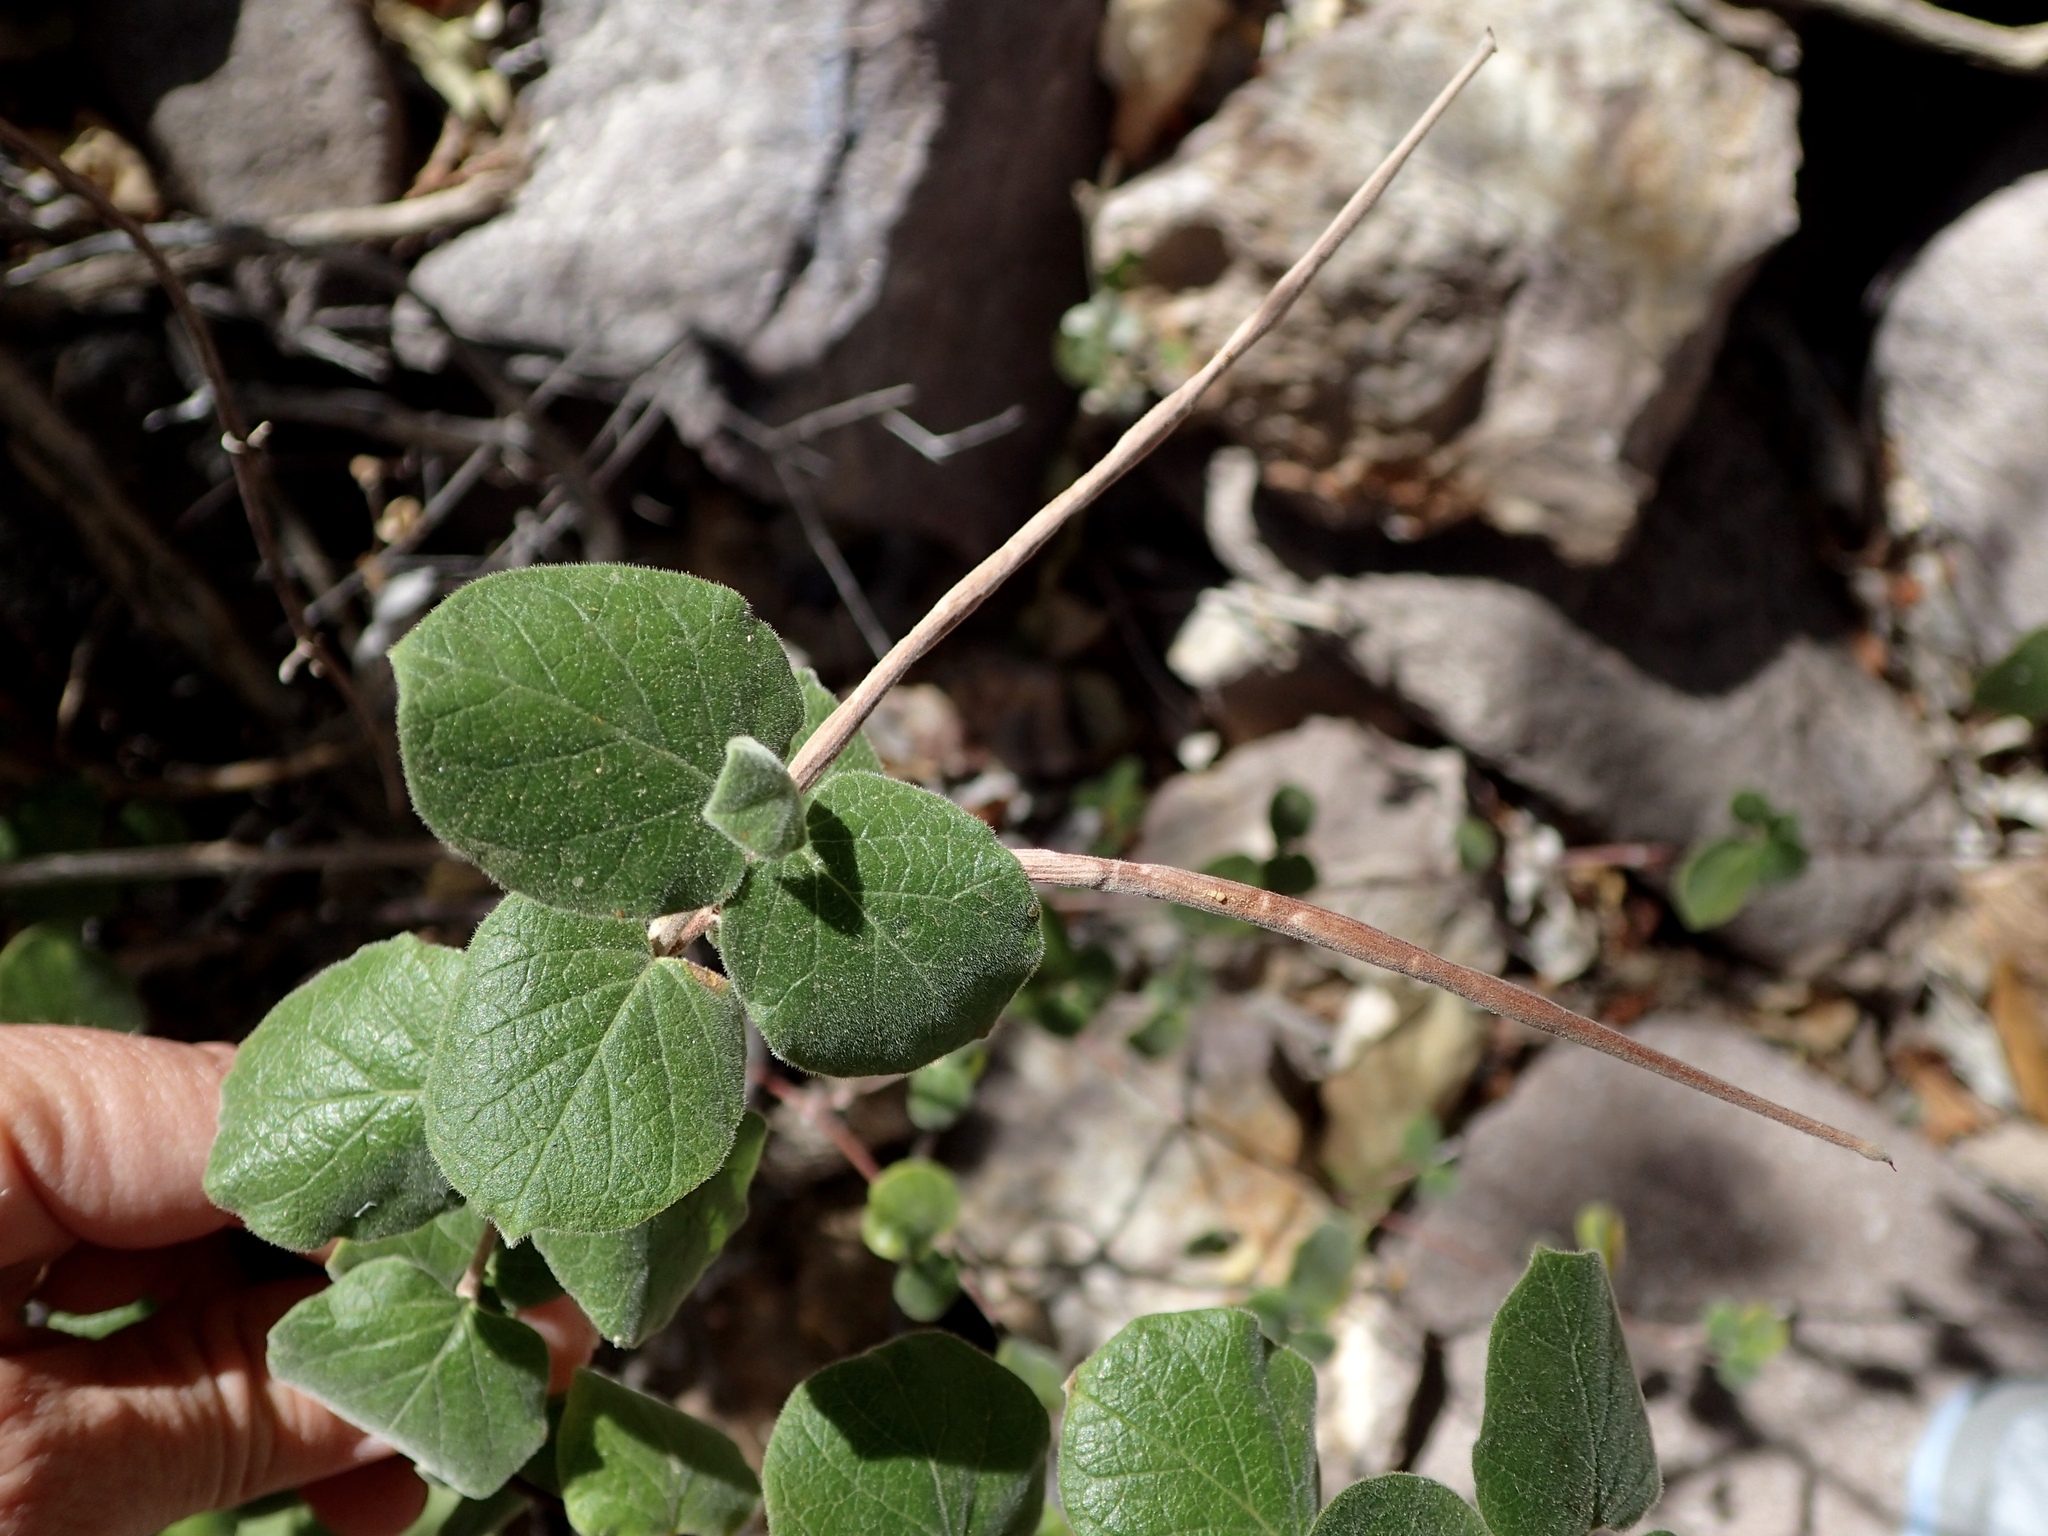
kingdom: Plantae
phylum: Tracheophyta
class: Magnoliopsida
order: Gentianales
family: Apocynaceae
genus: Mandevilla
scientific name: Mandevilla hesperia
